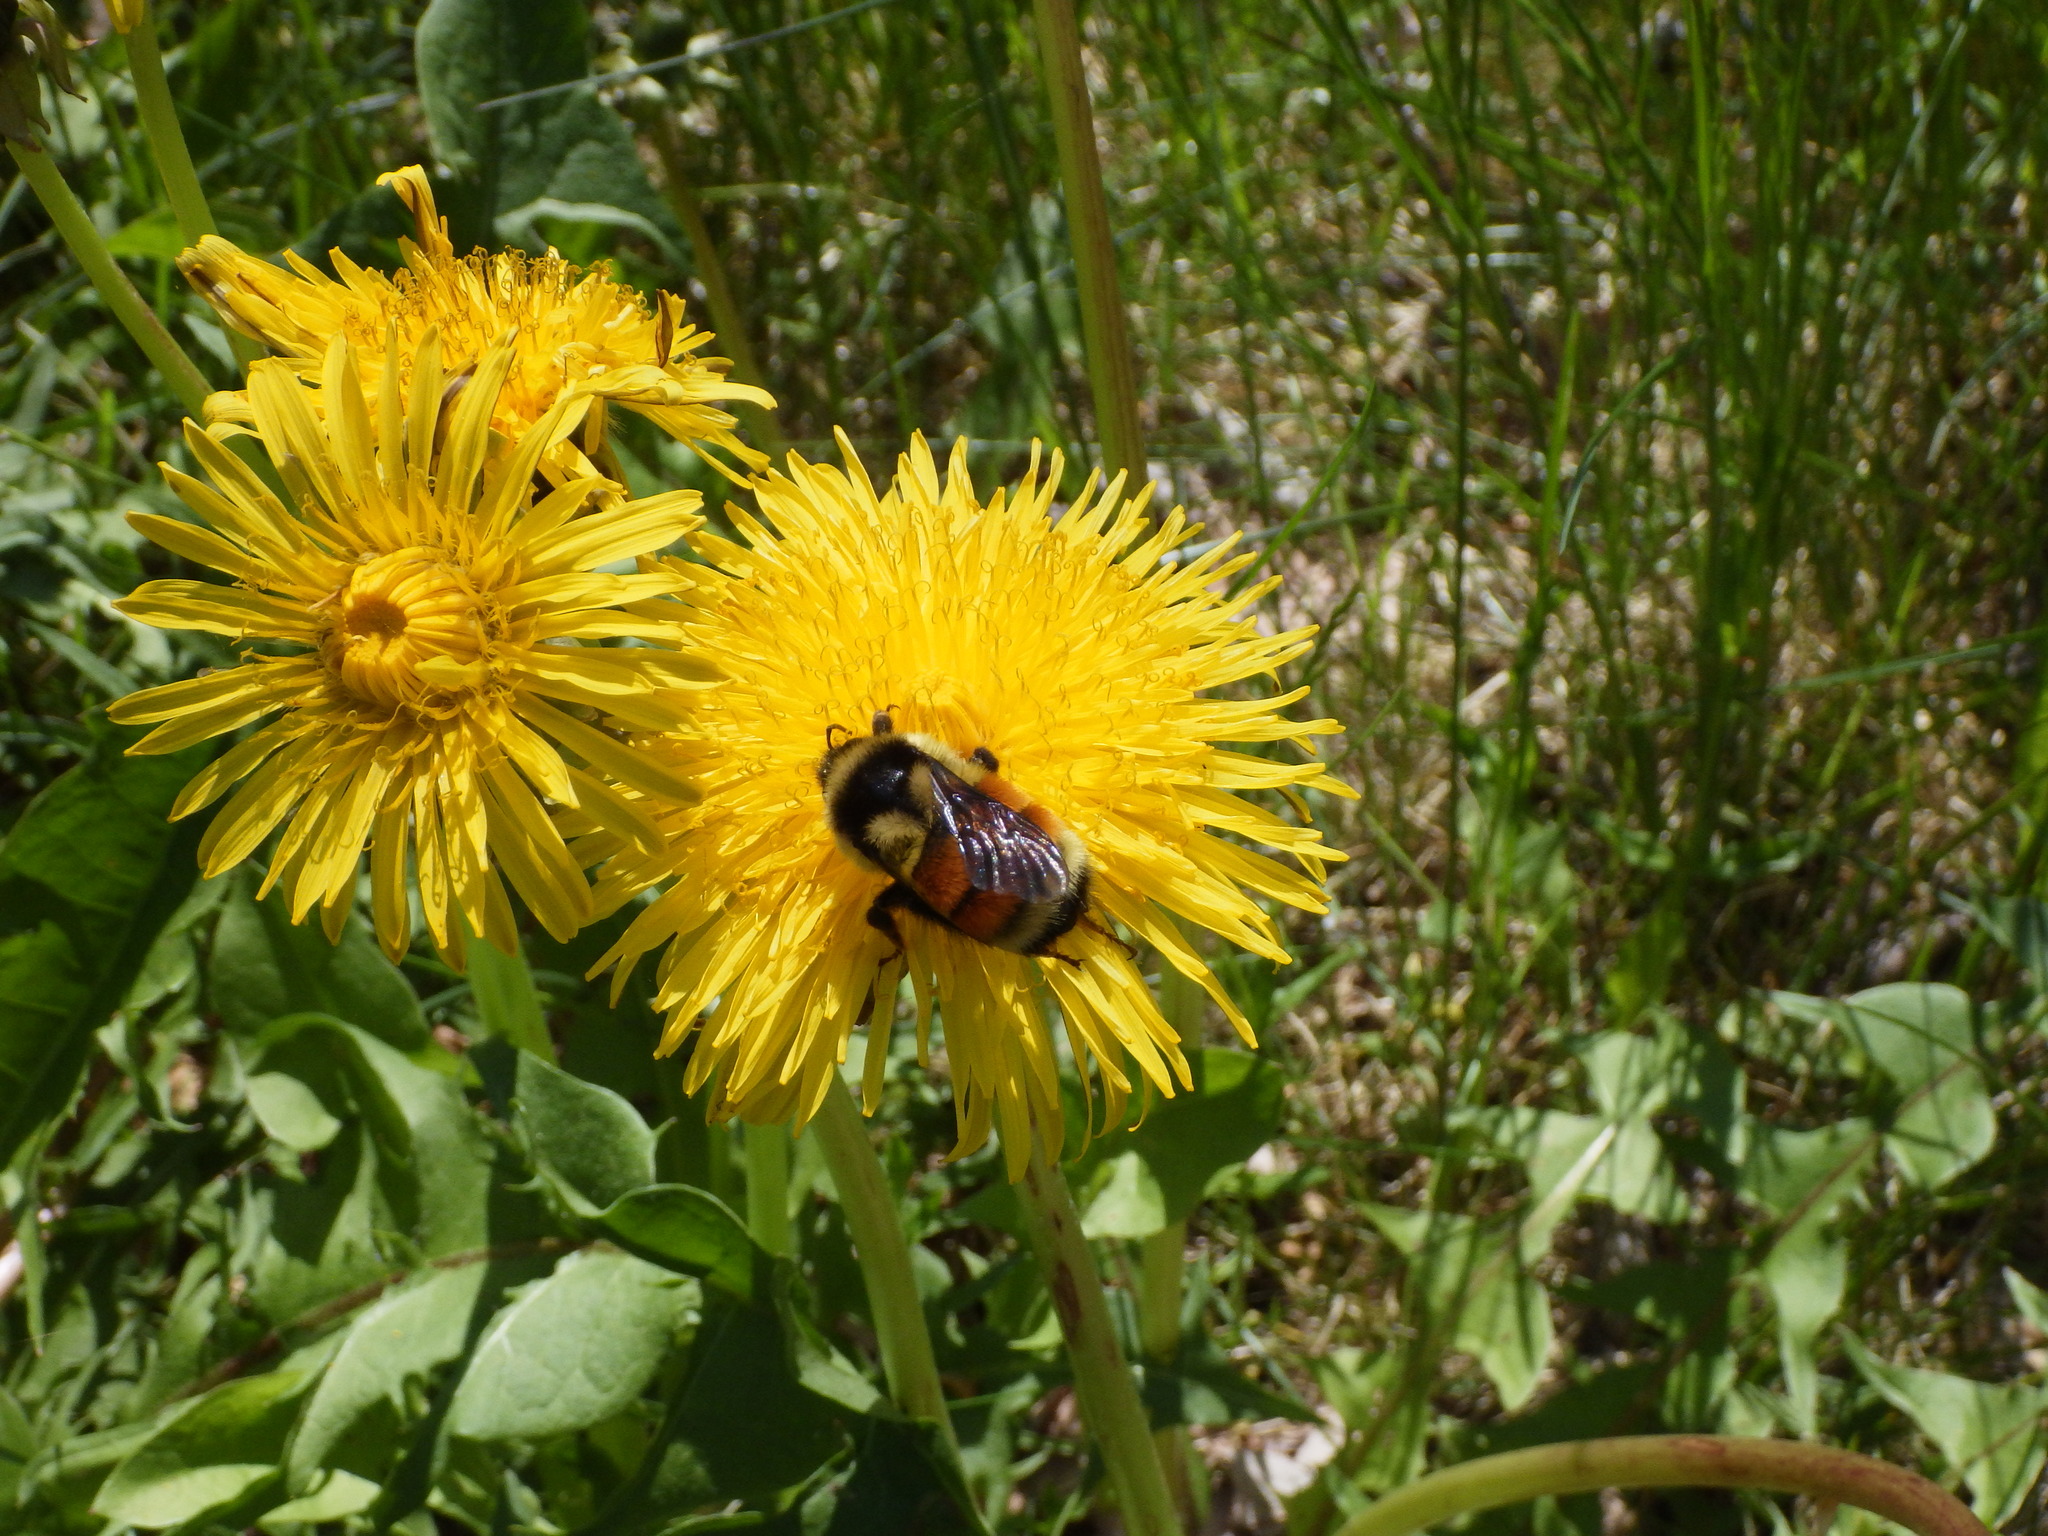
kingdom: Animalia
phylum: Arthropoda
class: Insecta
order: Hymenoptera
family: Apidae
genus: Bombus
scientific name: Bombus ternarius
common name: Tri-colored bumble bee
